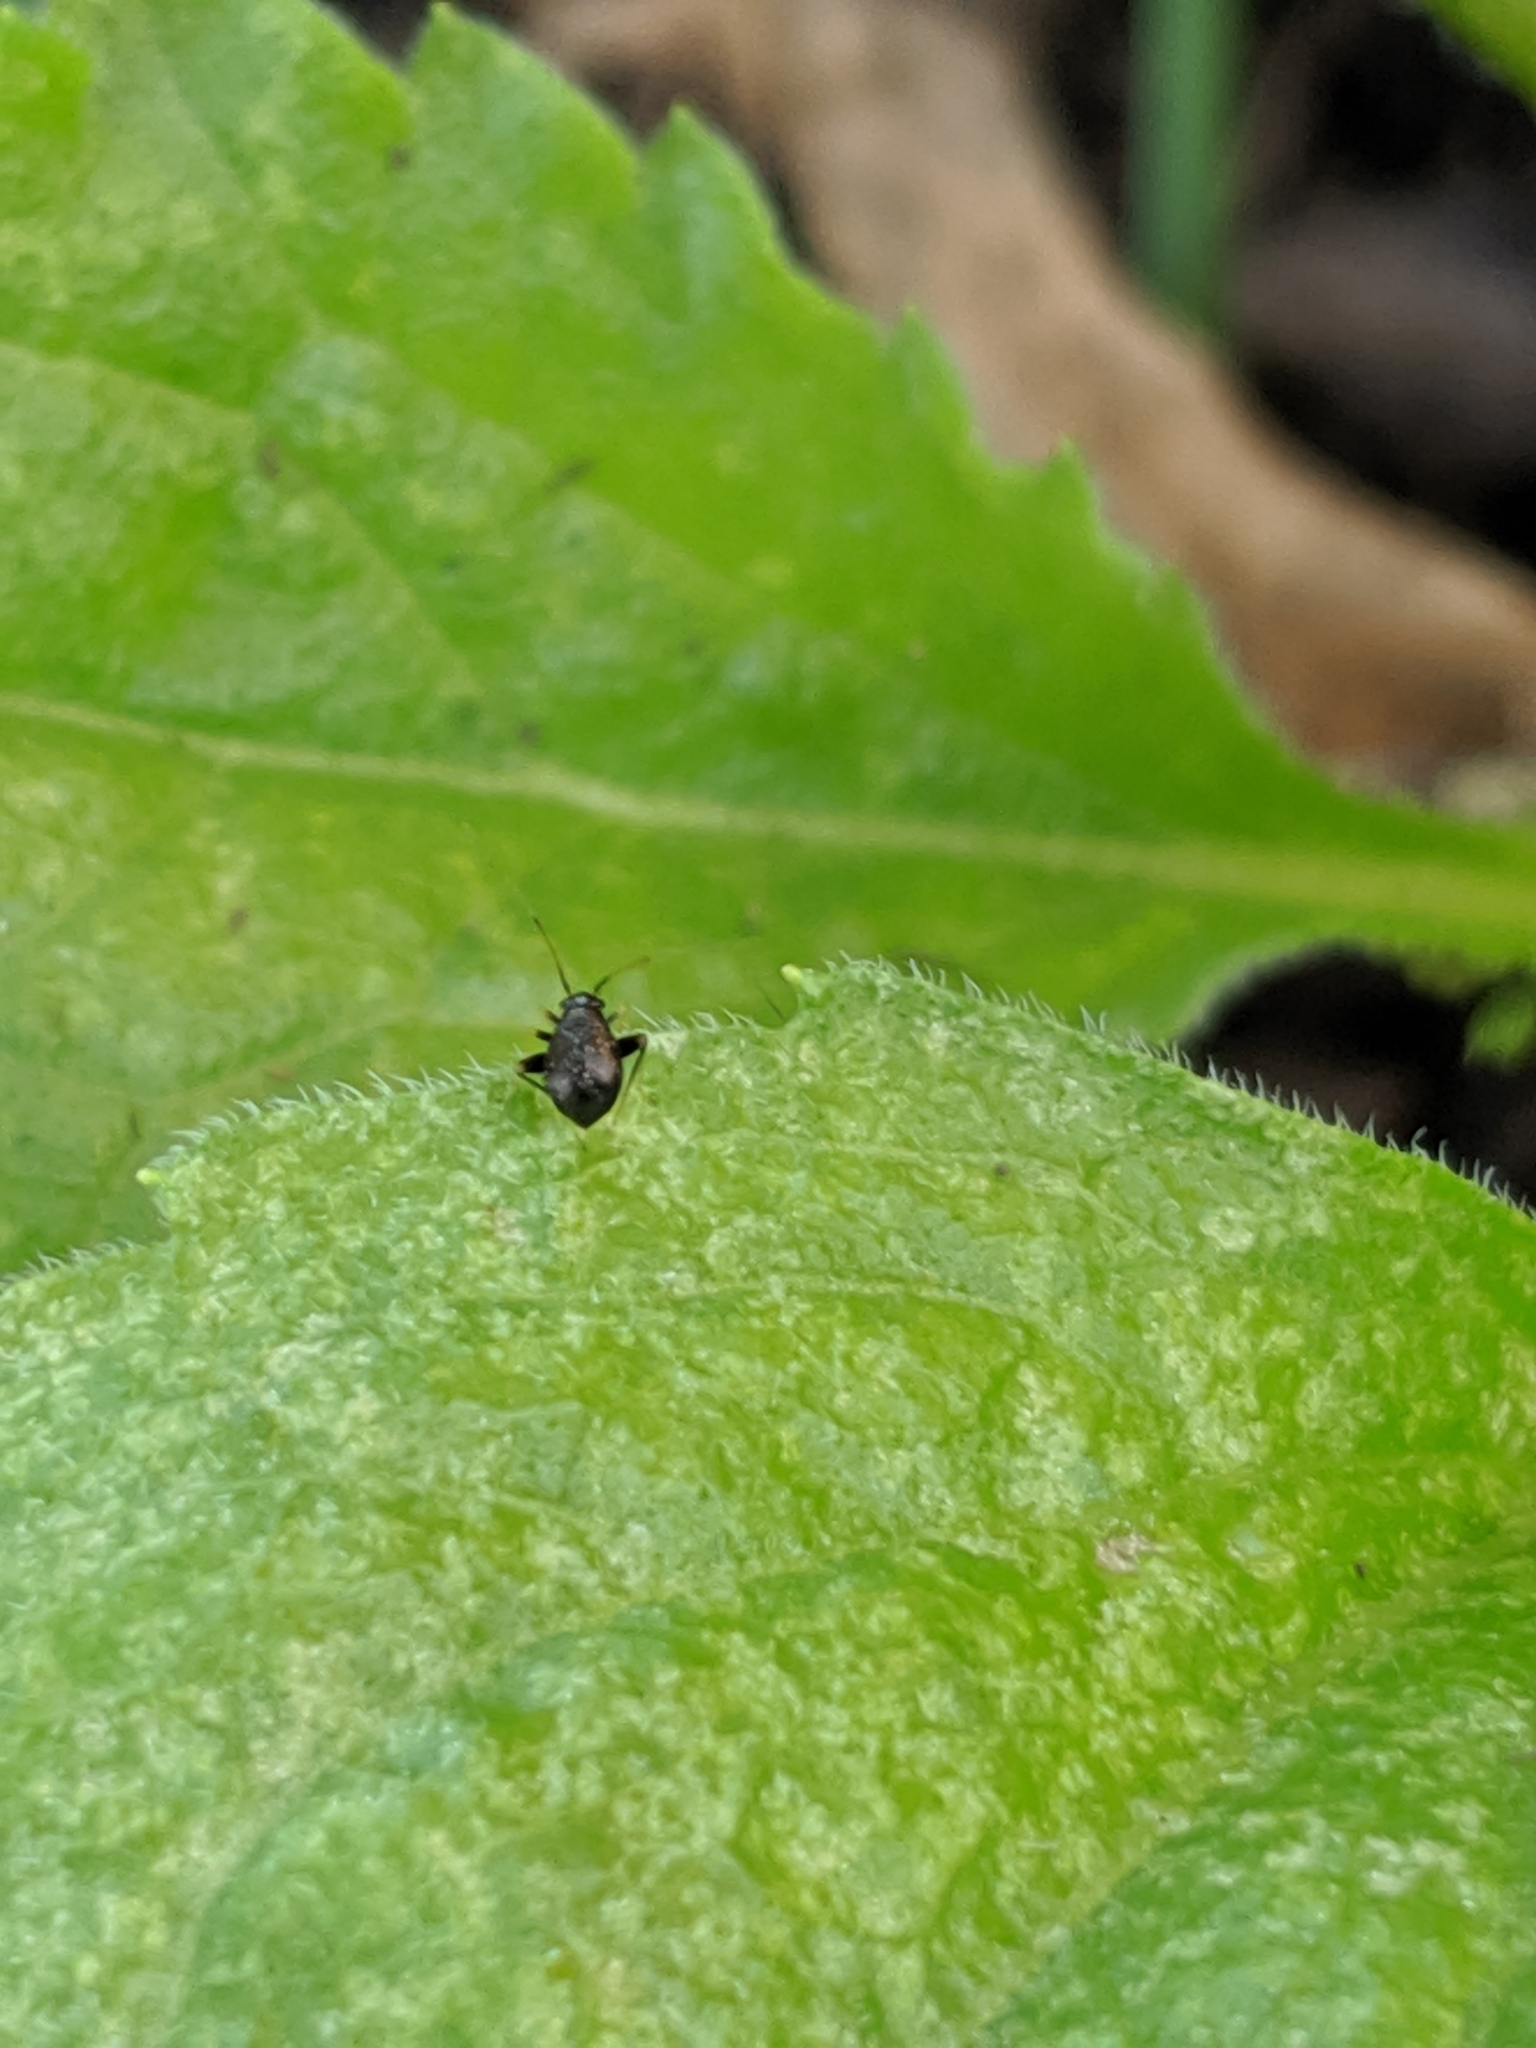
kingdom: Animalia
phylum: Arthropoda
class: Insecta
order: Hemiptera
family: Miridae
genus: Microtechnites
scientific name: Microtechnites bractatus
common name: Garden fleahopper
